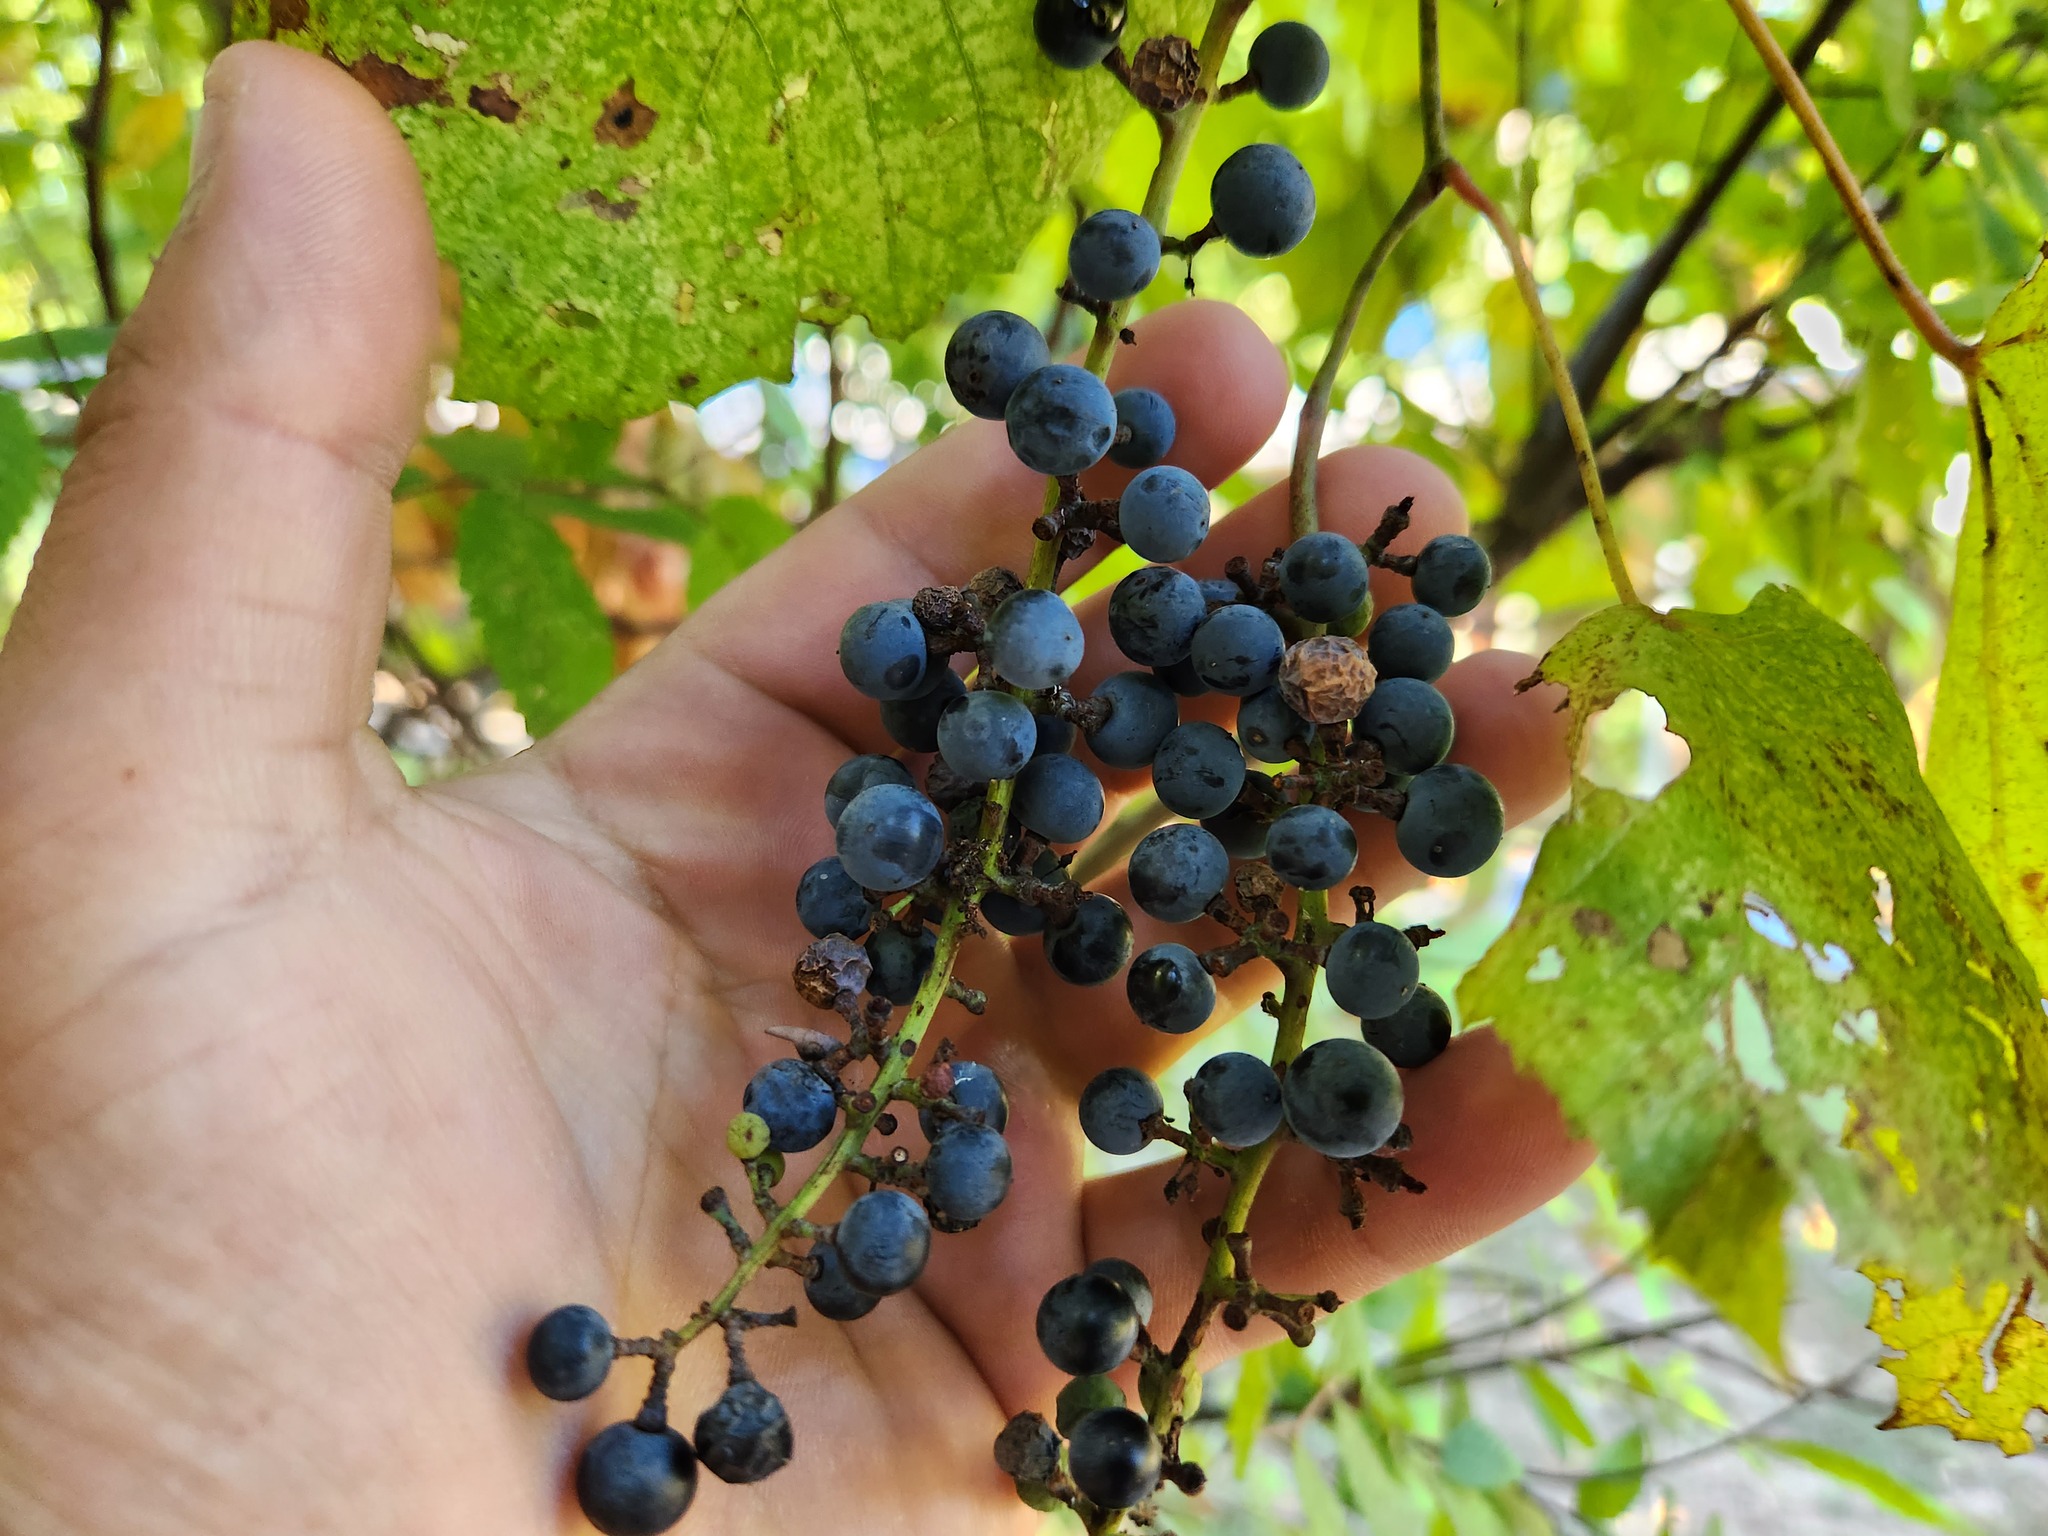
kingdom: Plantae
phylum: Tracheophyta
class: Magnoliopsida
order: Vitales
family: Vitaceae
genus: Vitis
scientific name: Vitis vulpina
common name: Frost grape
